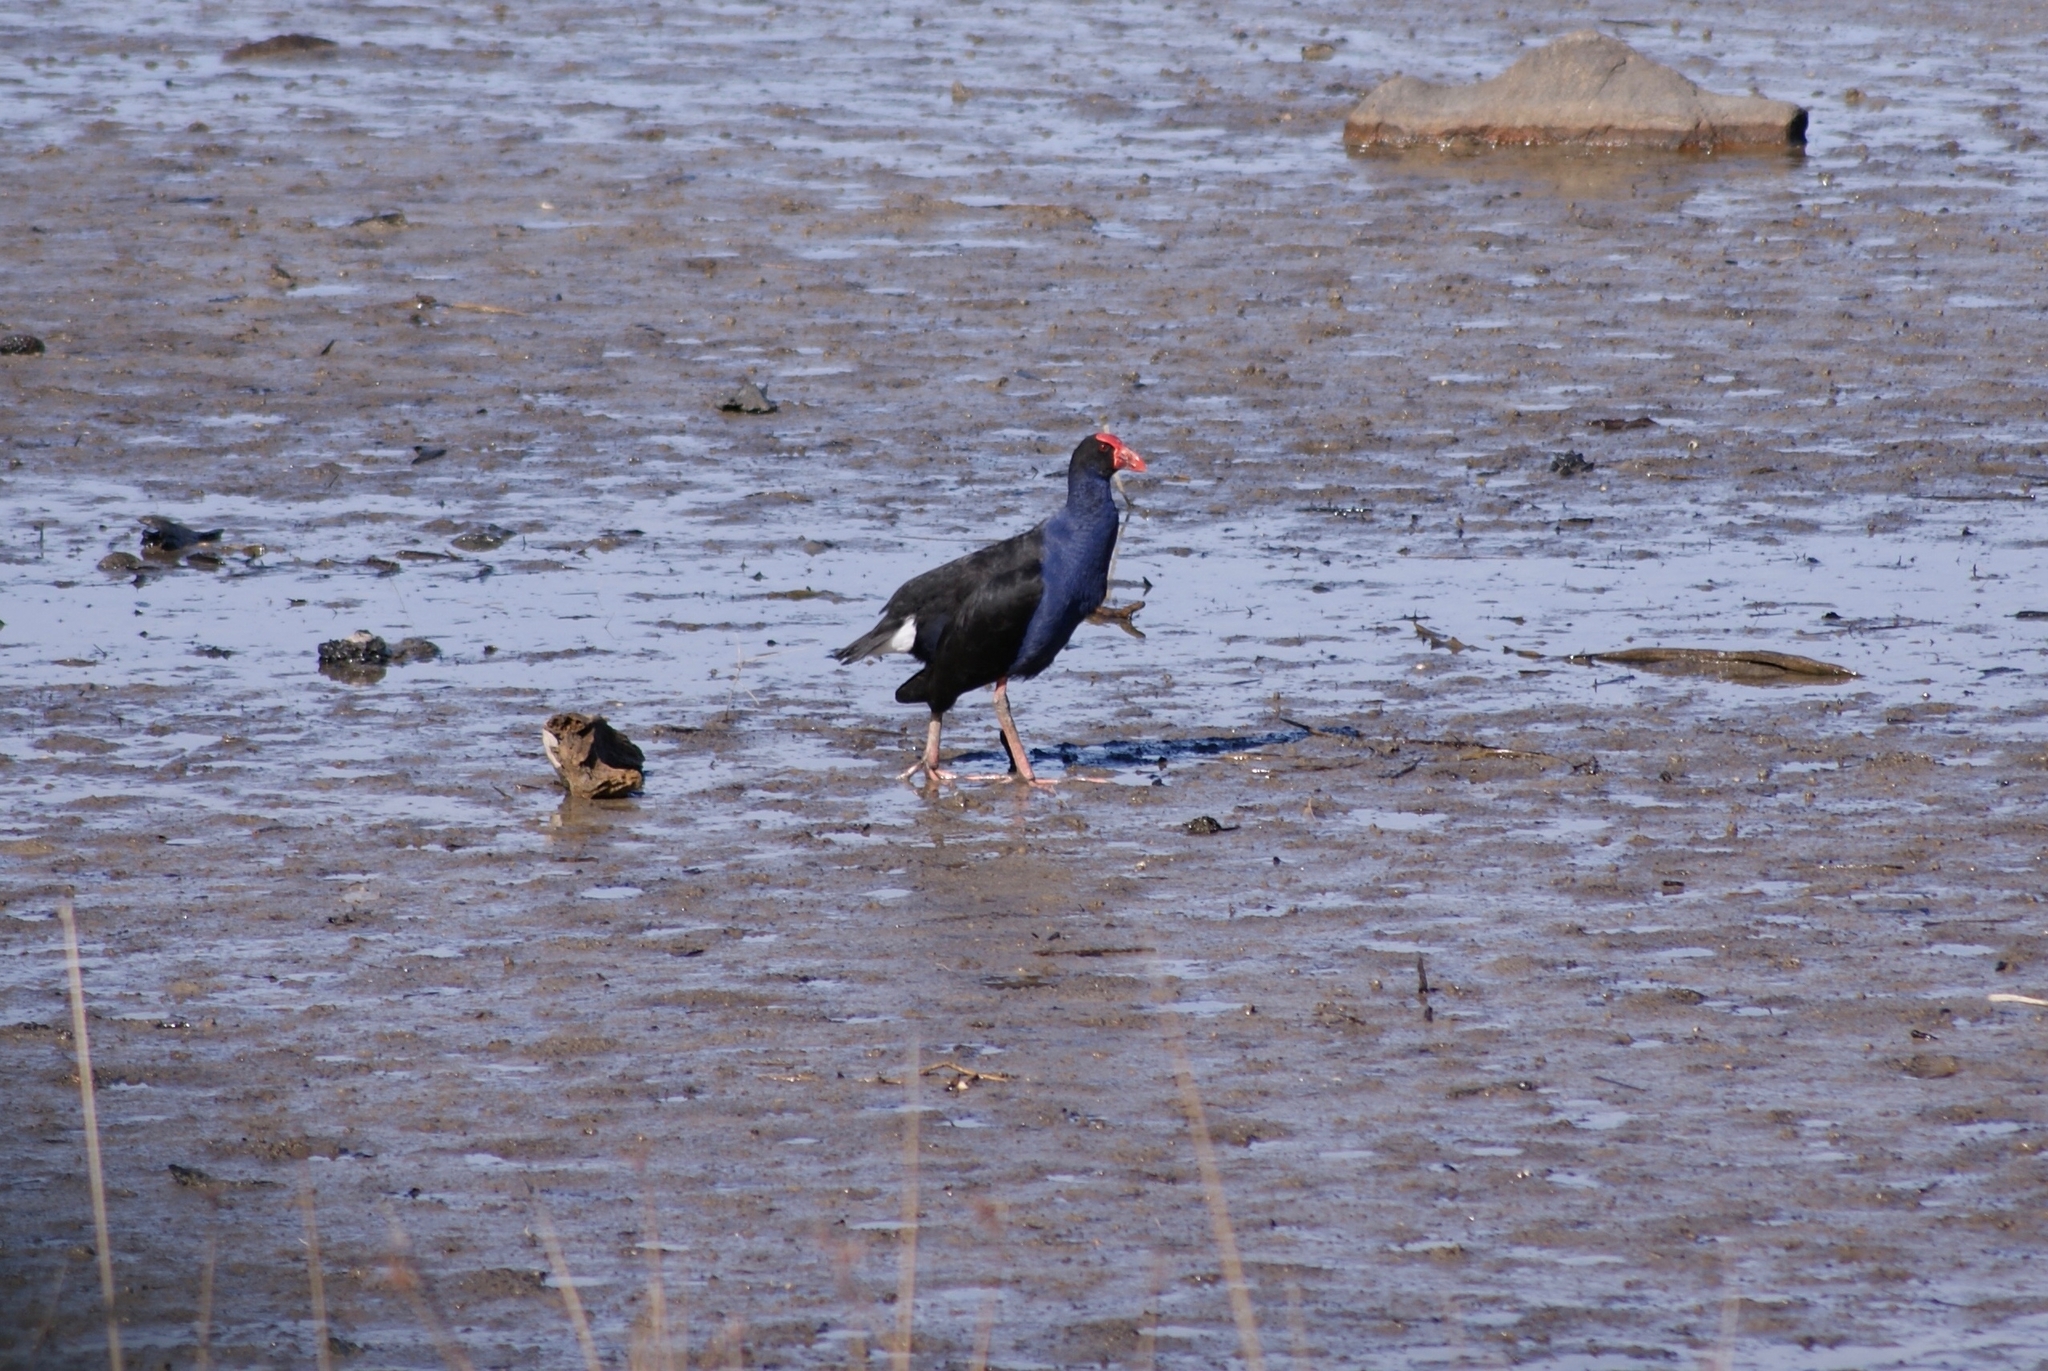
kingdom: Animalia
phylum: Chordata
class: Aves
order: Gruiformes
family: Rallidae
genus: Porphyrio
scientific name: Porphyrio melanotus
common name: Australasian swamphen
